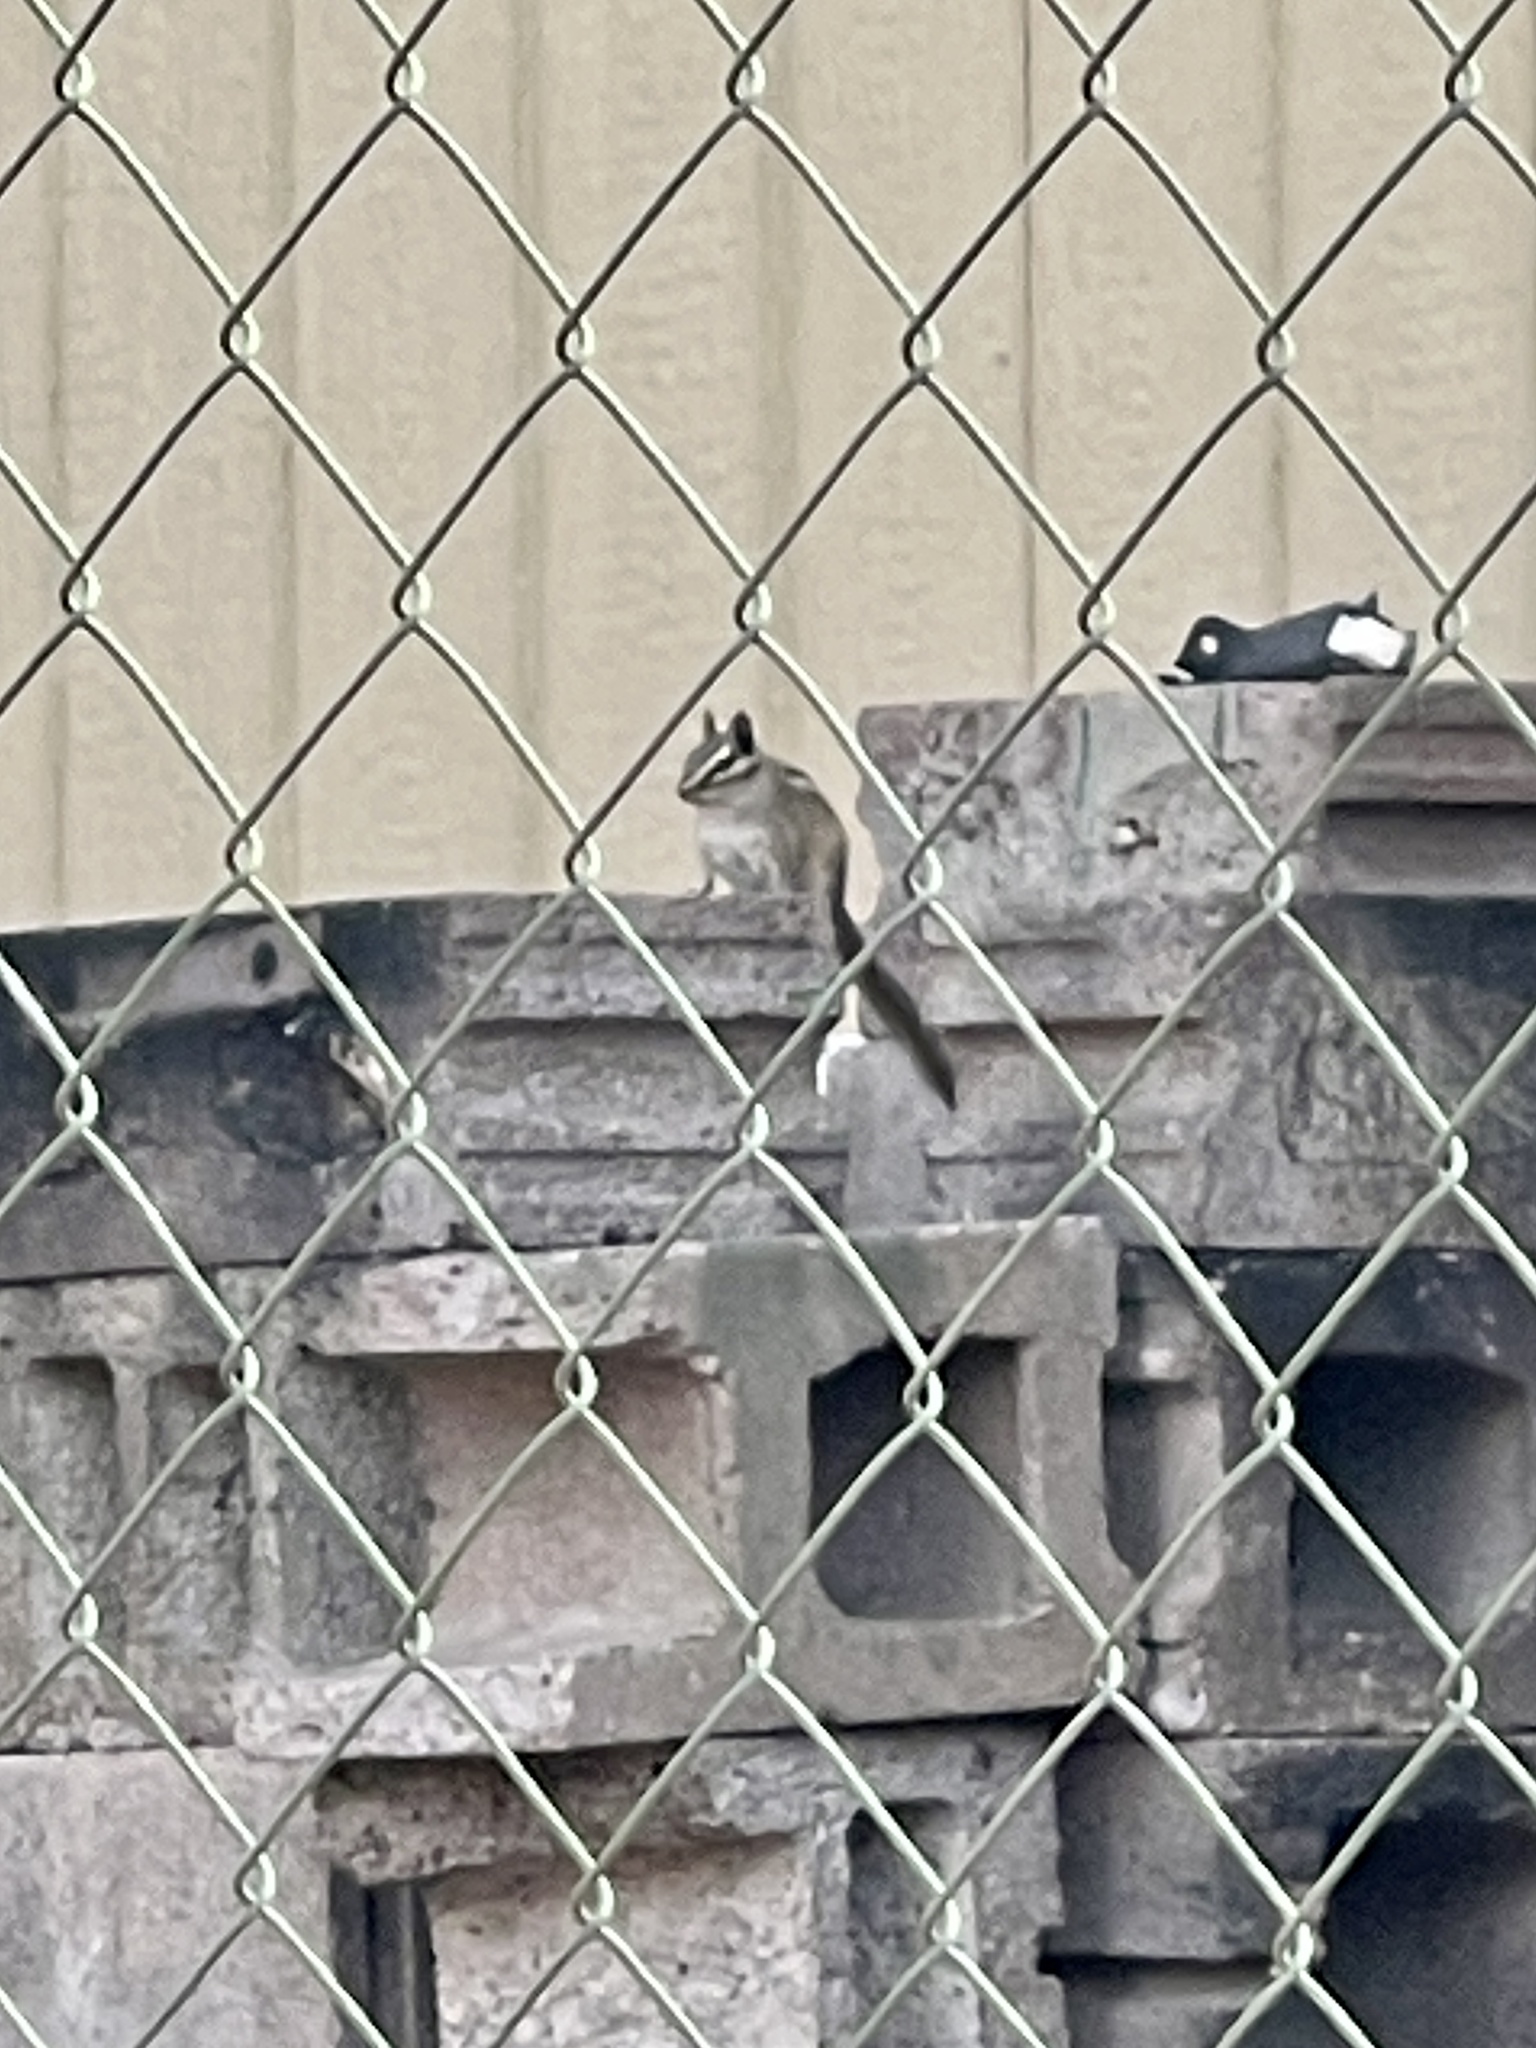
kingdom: Animalia
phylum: Chordata
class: Mammalia
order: Rodentia
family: Sciuridae
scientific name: Sciuridae
